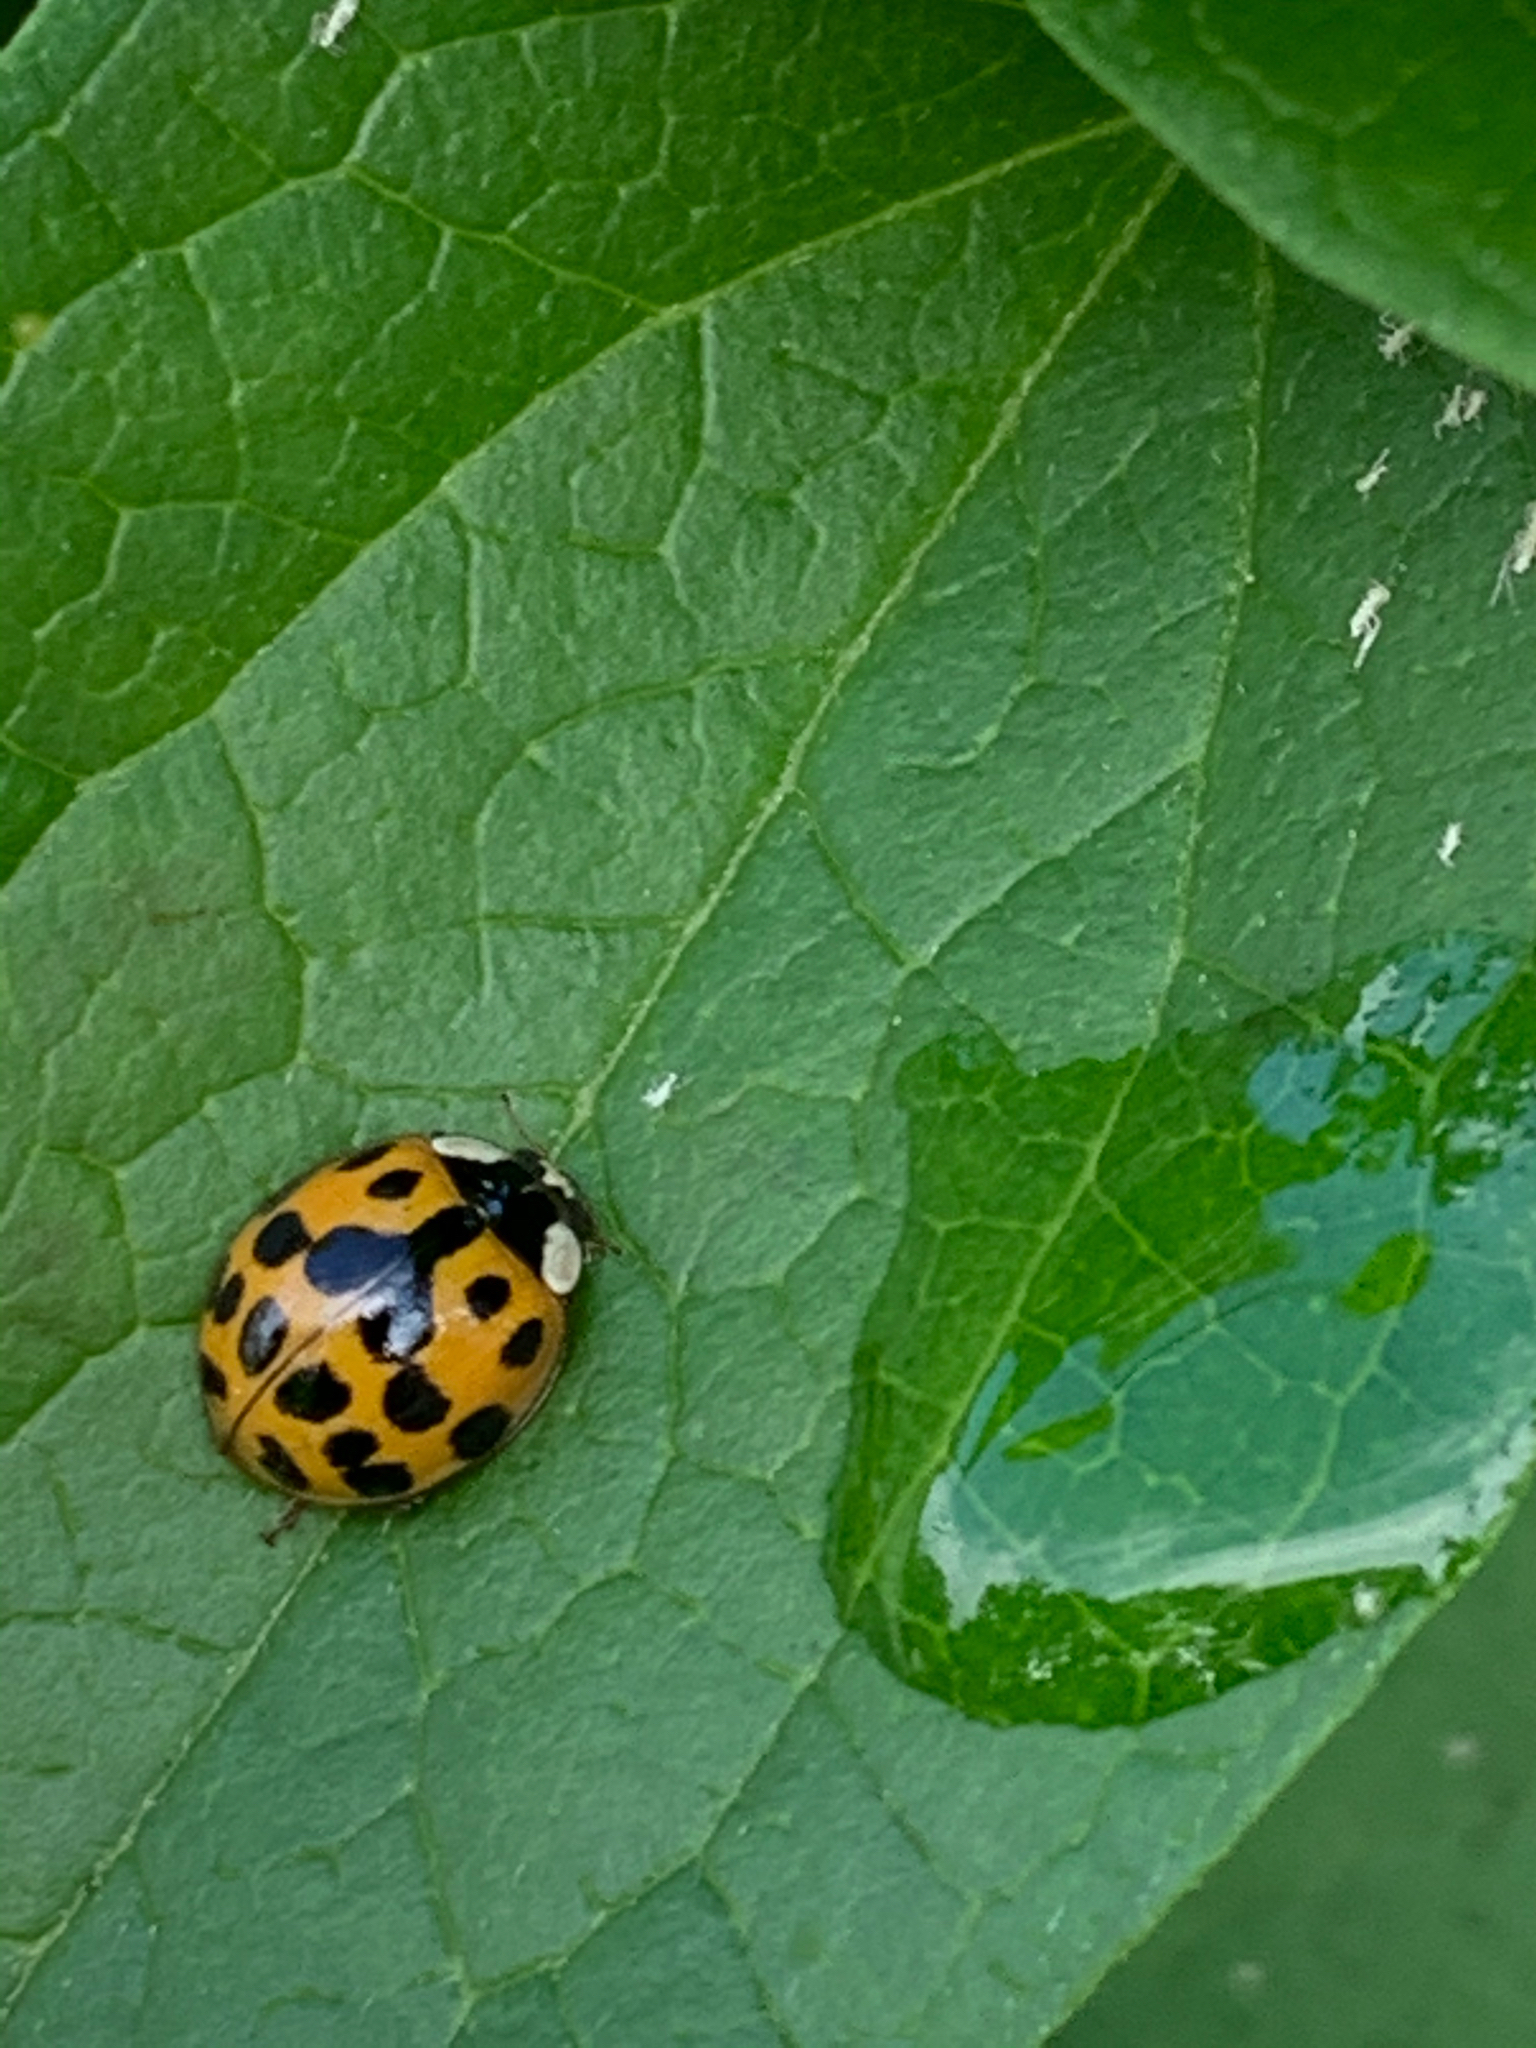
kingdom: Animalia
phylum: Arthropoda
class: Insecta
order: Coleoptera
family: Coccinellidae
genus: Harmonia
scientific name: Harmonia axyridis
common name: Harlequin ladybird
